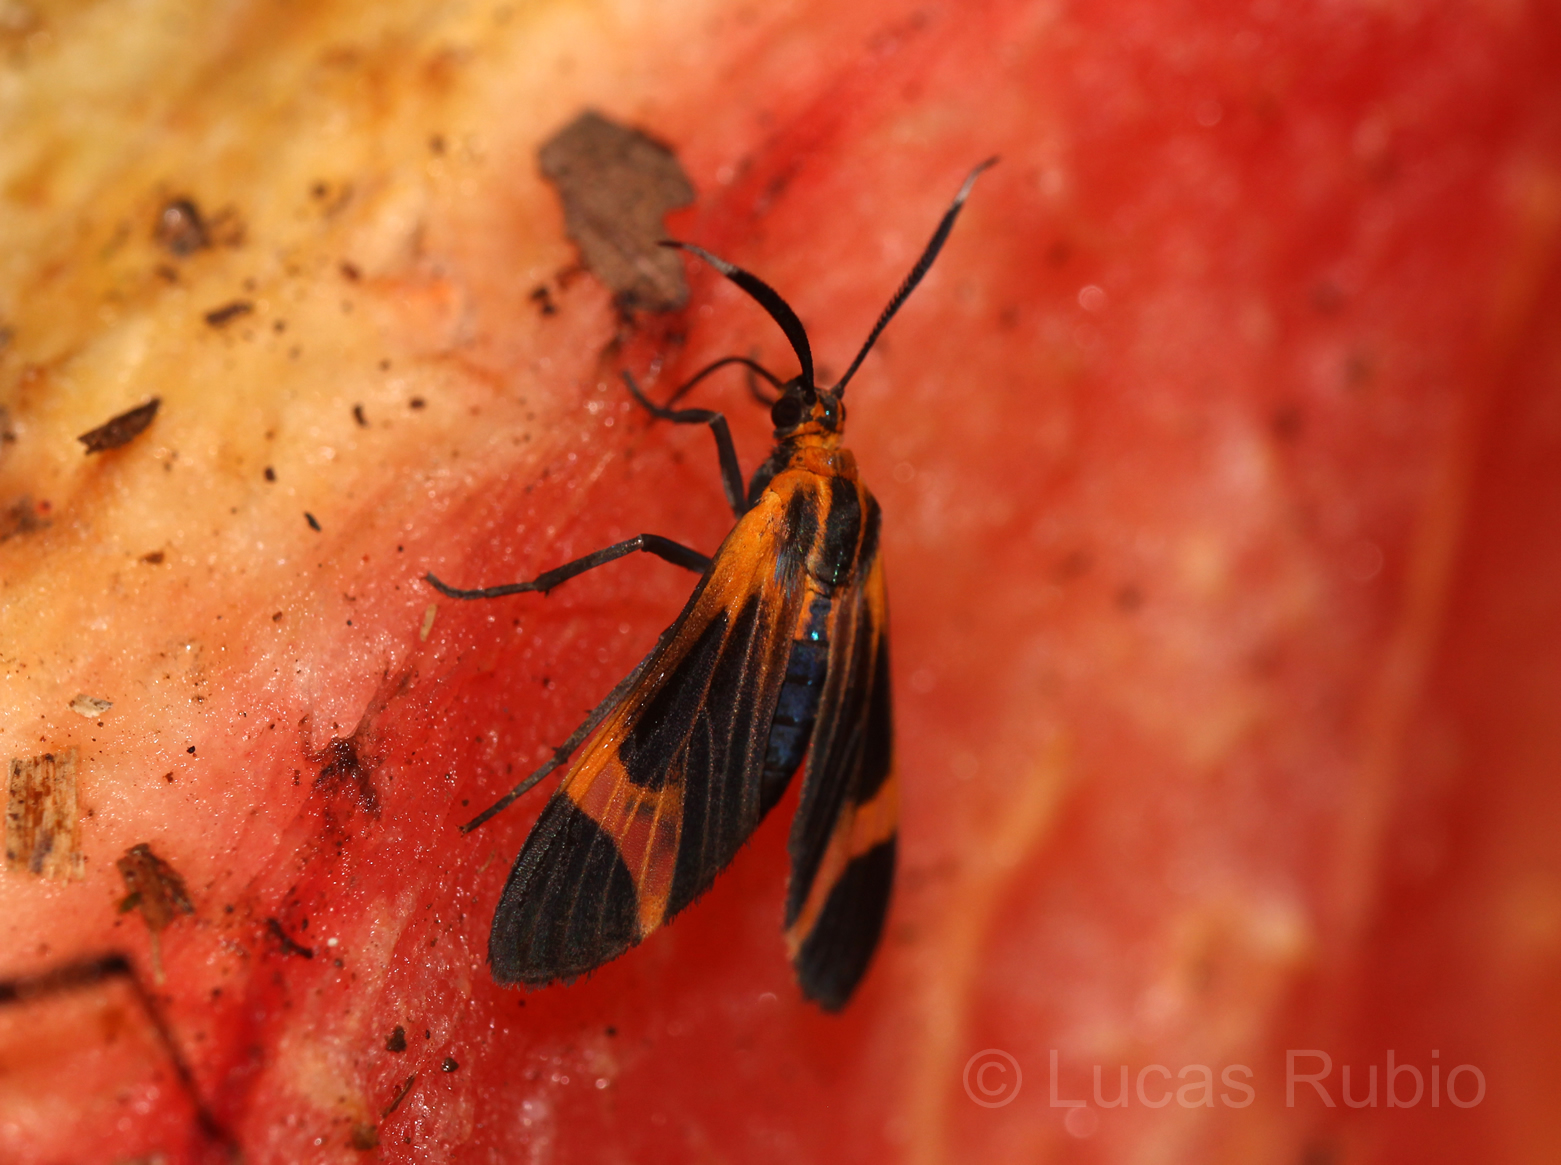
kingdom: Animalia
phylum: Arthropoda
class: Insecta
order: Lepidoptera
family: Erebidae
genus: Dycladia
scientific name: Dycladia lucetius
